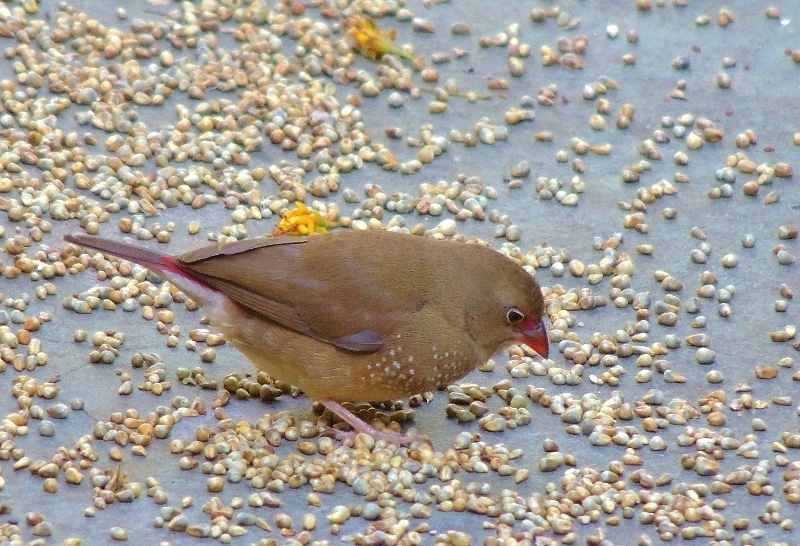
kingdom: Animalia
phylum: Chordata
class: Aves
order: Passeriformes
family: Estrildidae
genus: Lagonosticta
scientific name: Lagonosticta senegala
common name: Red-billed firefinch
